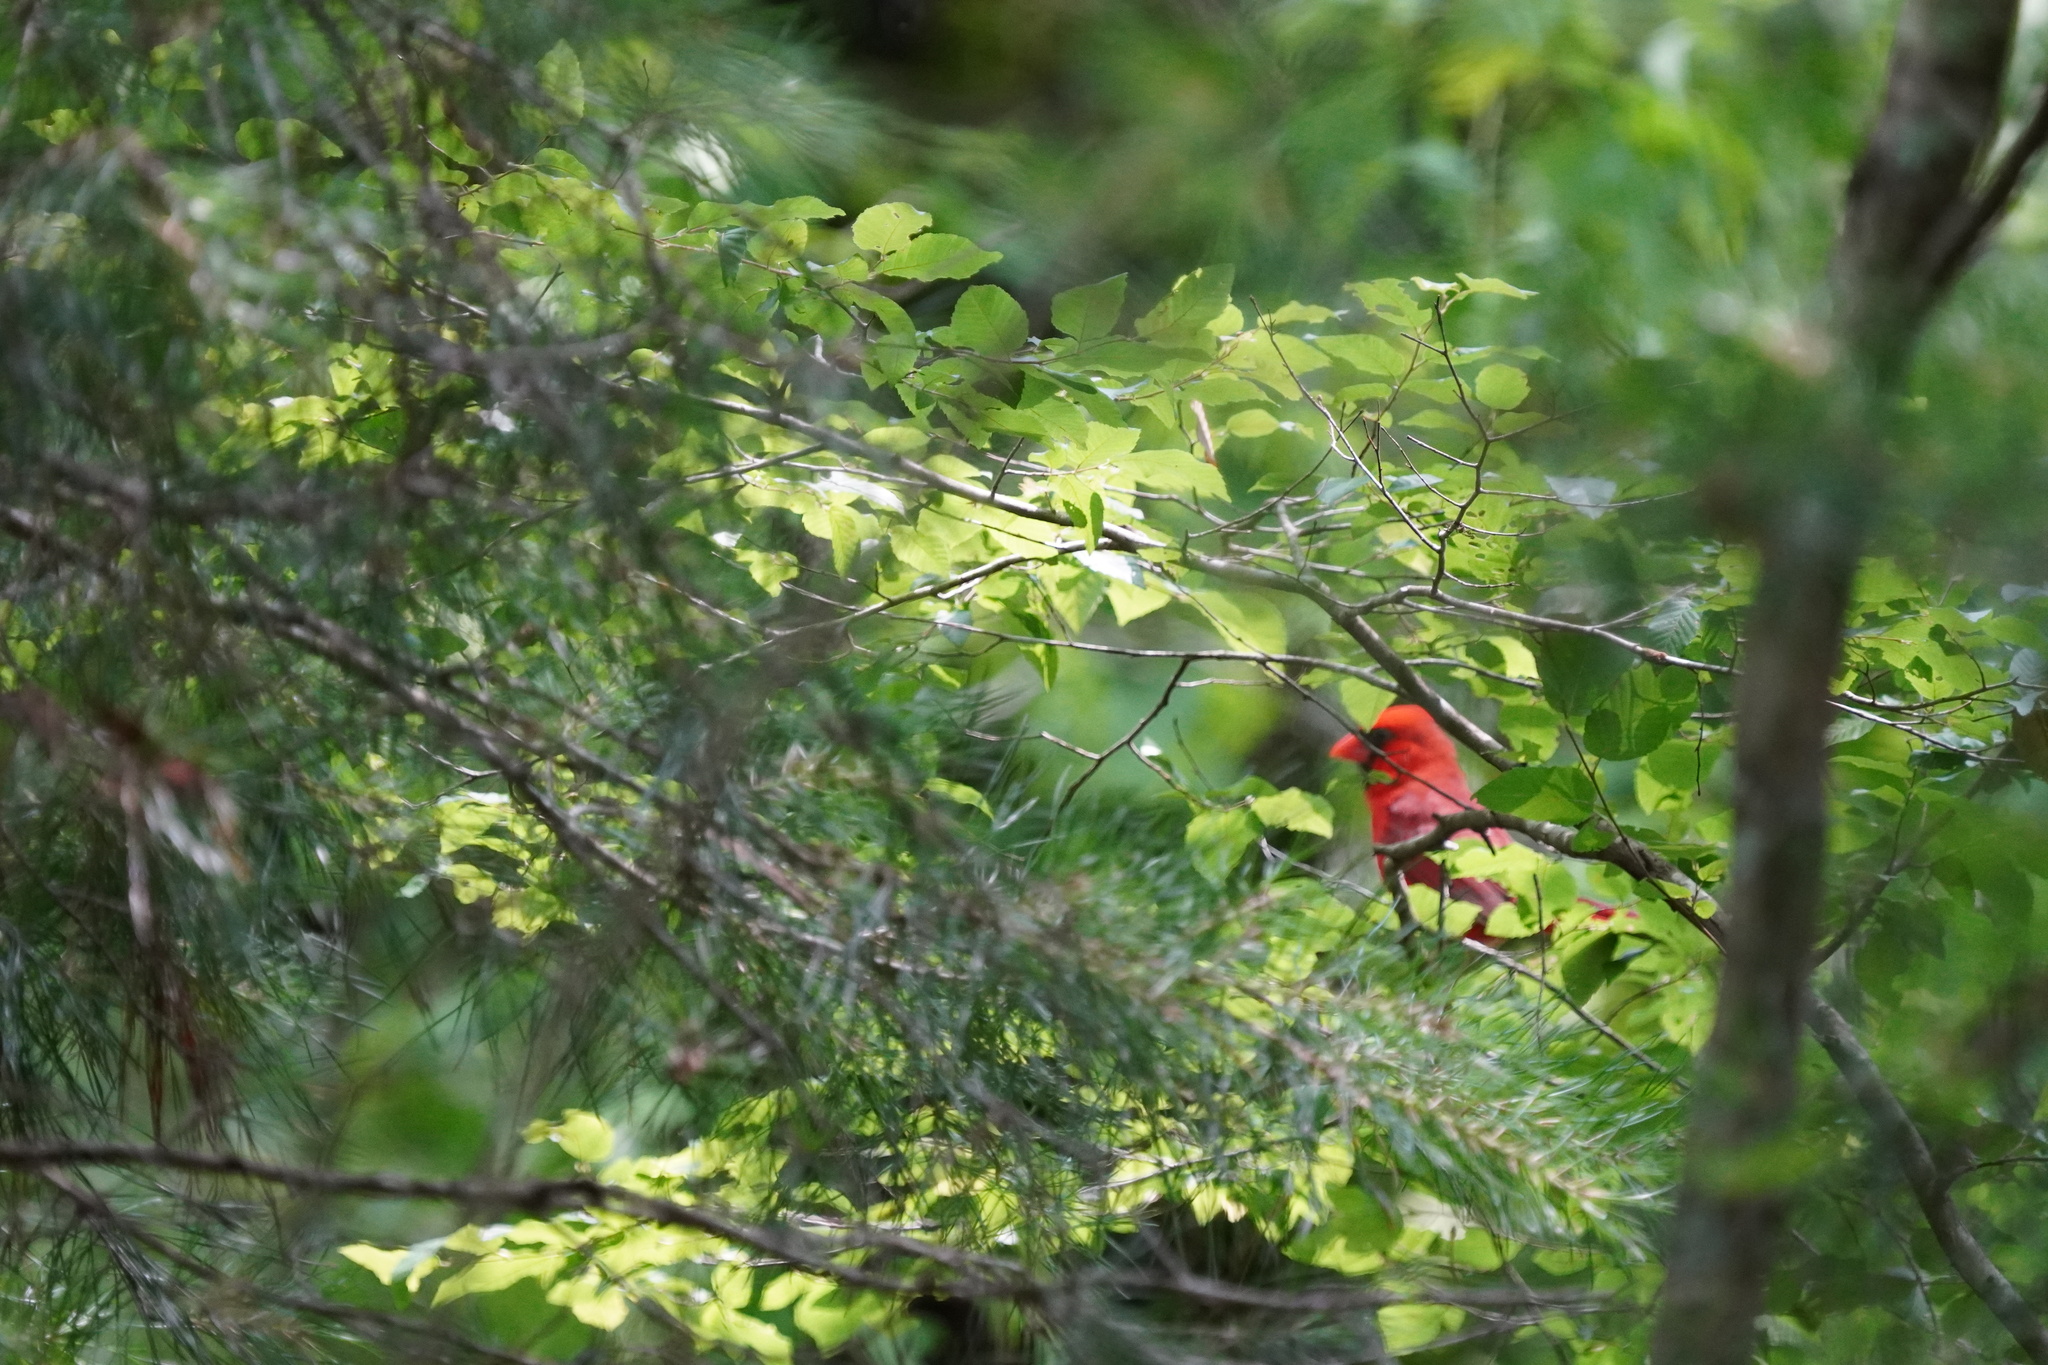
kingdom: Animalia
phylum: Chordata
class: Aves
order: Passeriformes
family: Cardinalidae
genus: Cardinalis
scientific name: Cardinalis cardinalis
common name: Northern cardinal
